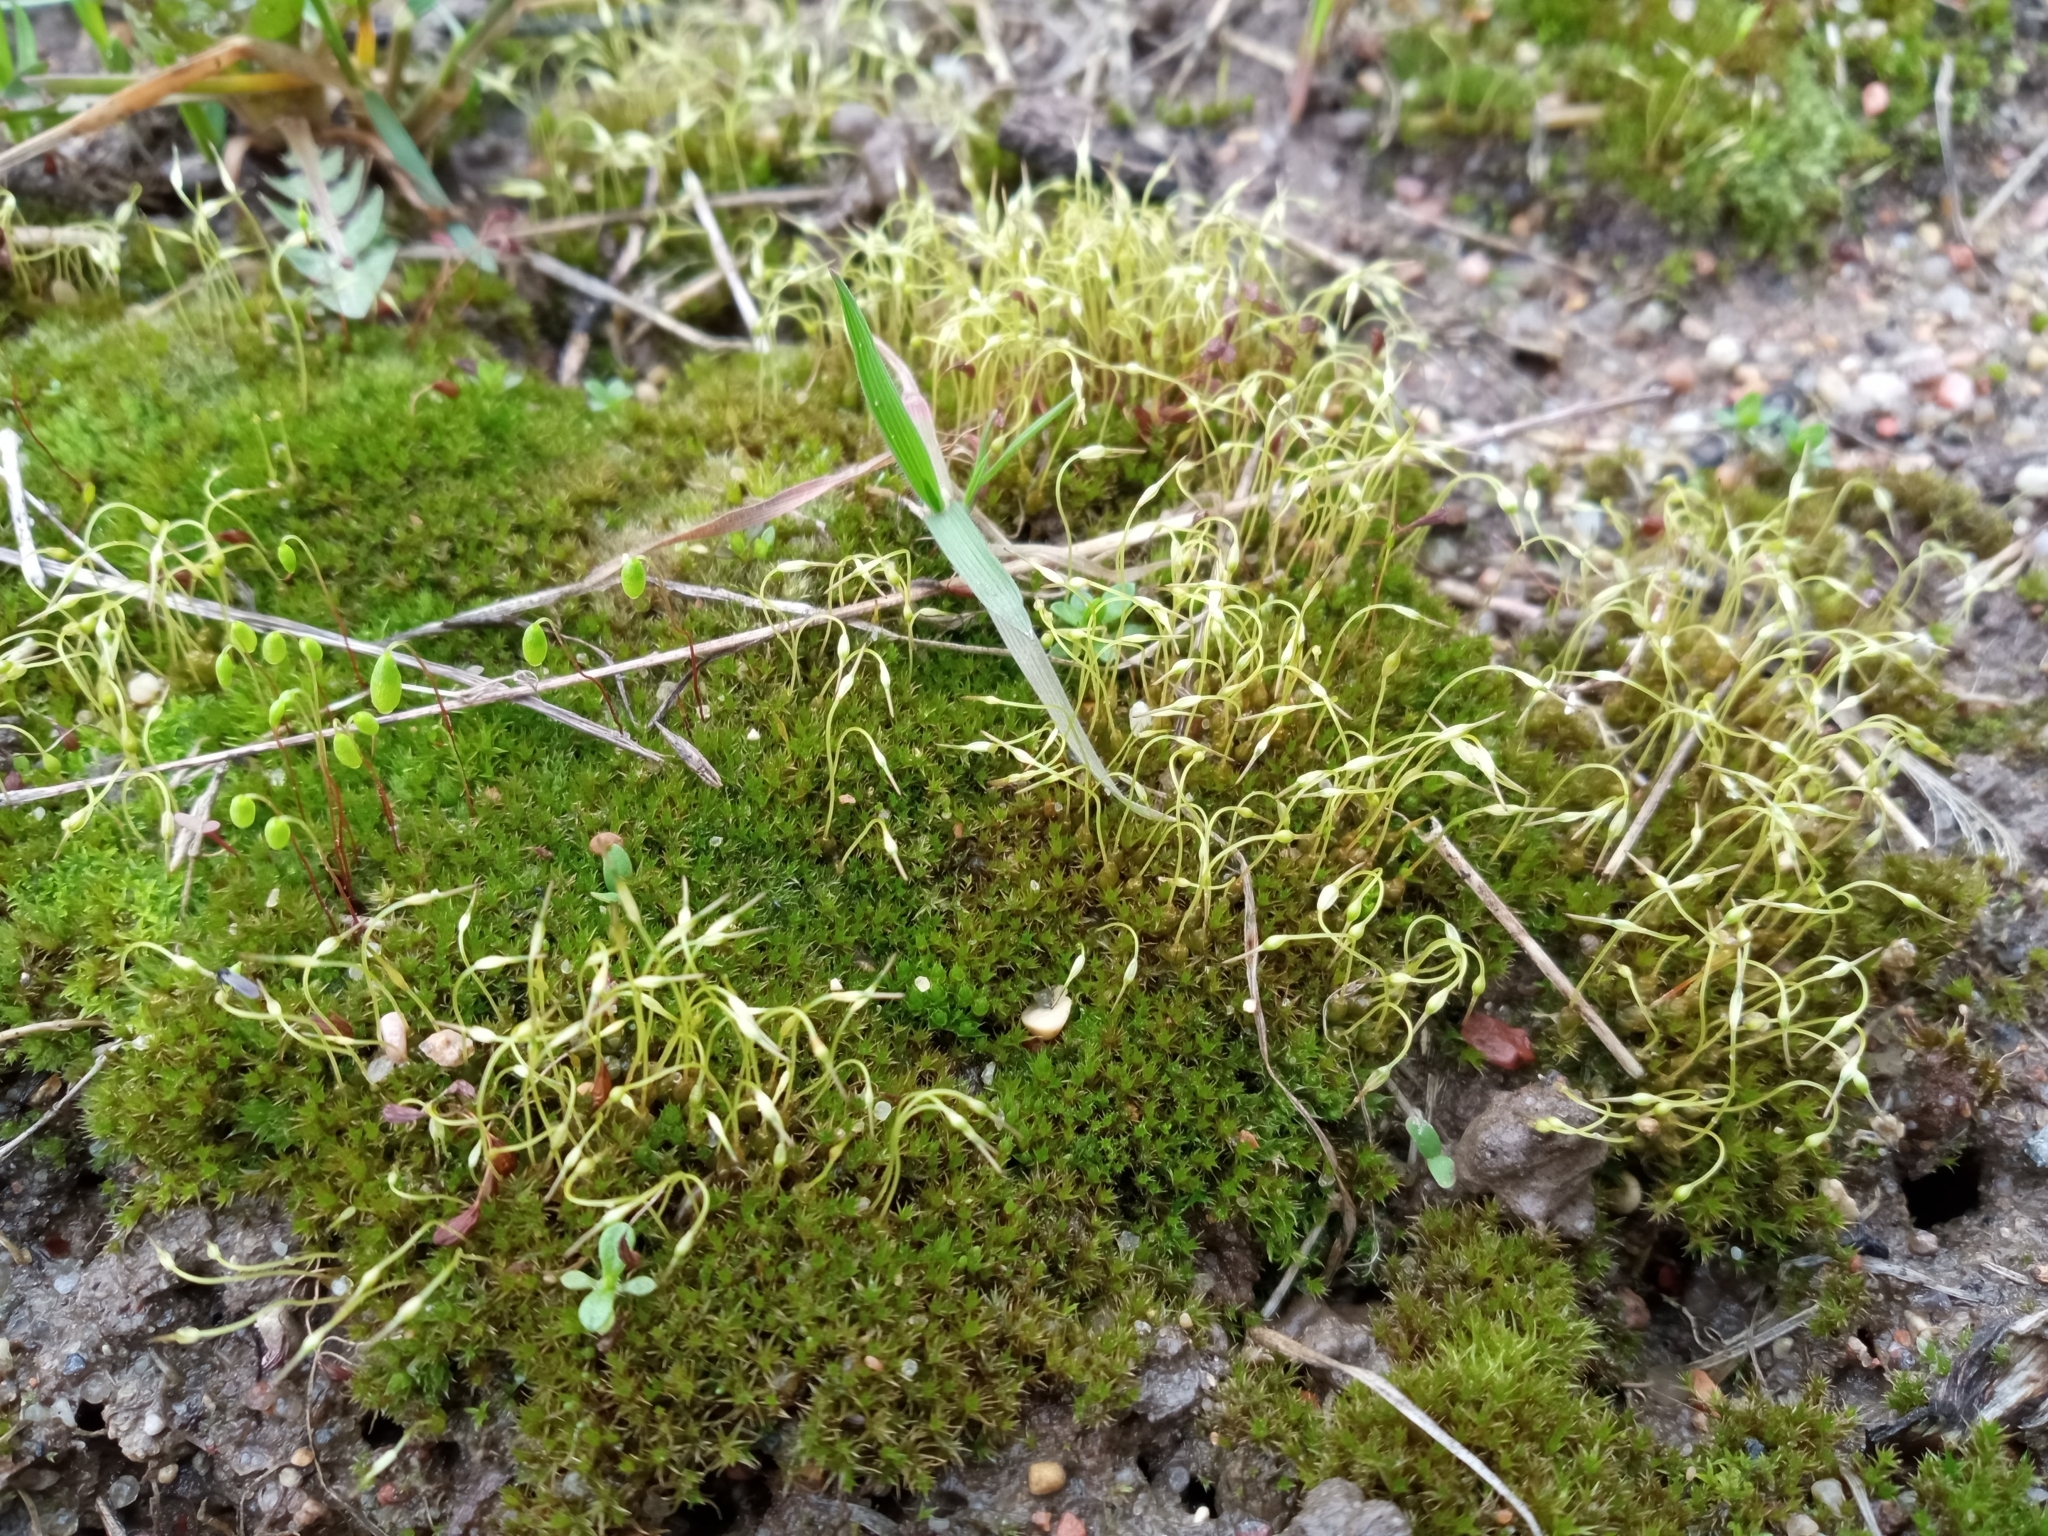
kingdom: Plantae
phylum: Bryophyta
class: Bryopsida
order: Funariales
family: Funariaceae
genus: Funaria
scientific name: Funaria hygrometrica
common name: Common cord moss
